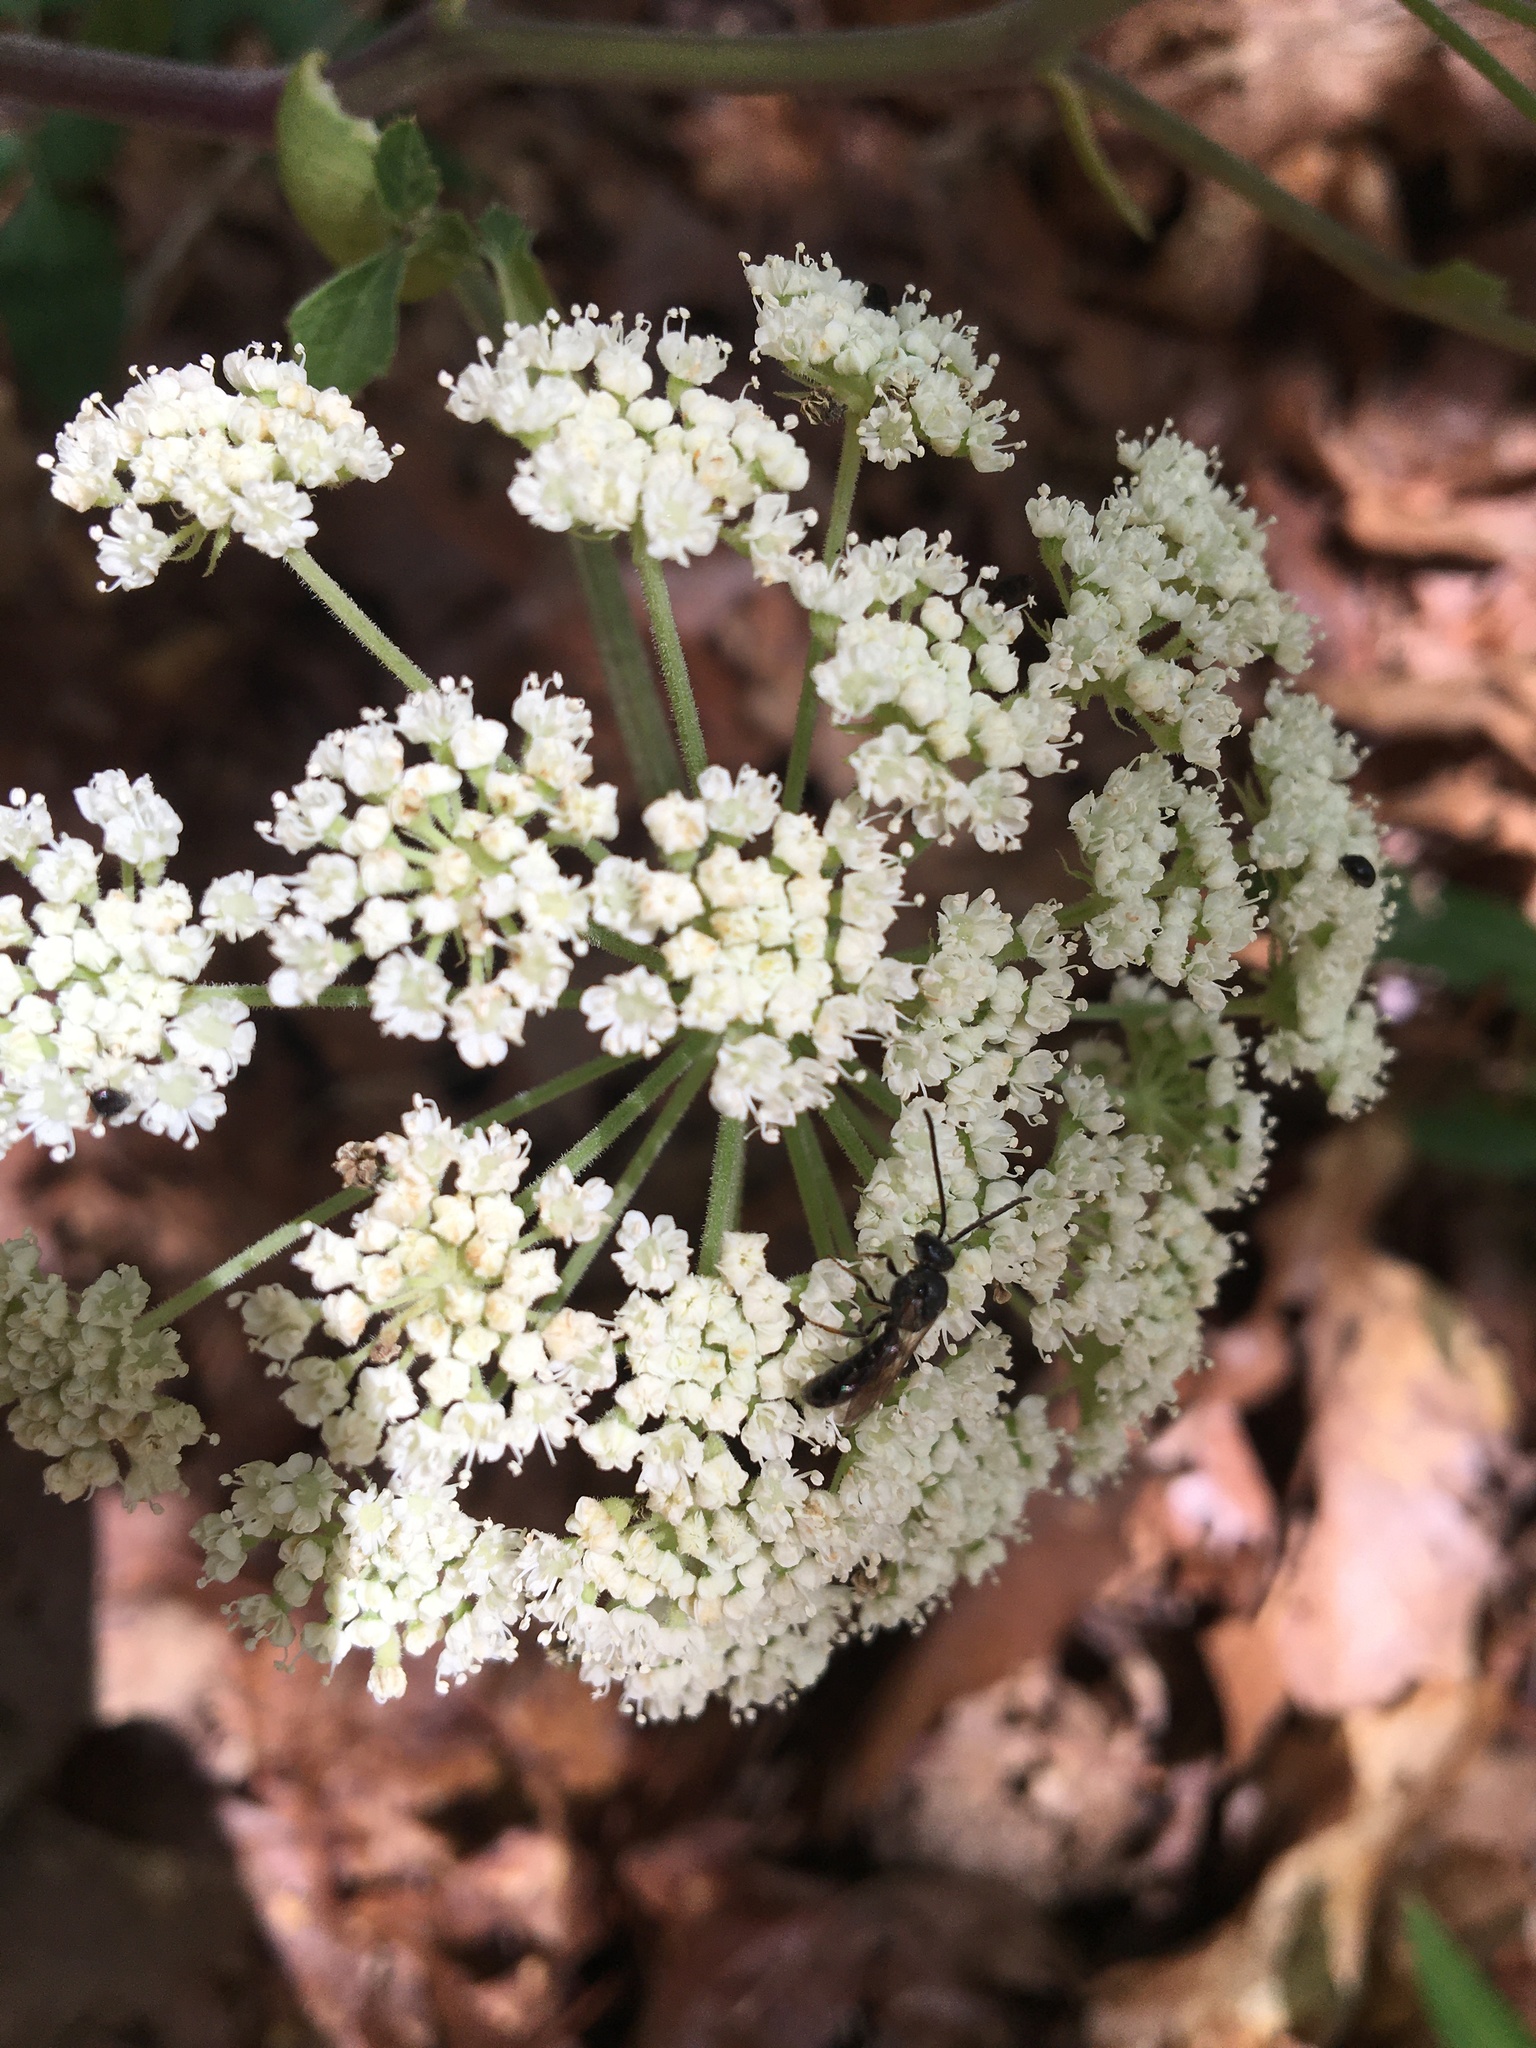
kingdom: Plantae
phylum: Tracheophyta
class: Magnoliopsida
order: Apiales
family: Apiaceae
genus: Angelica
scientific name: Angelica venenosa
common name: Hairy angelica
